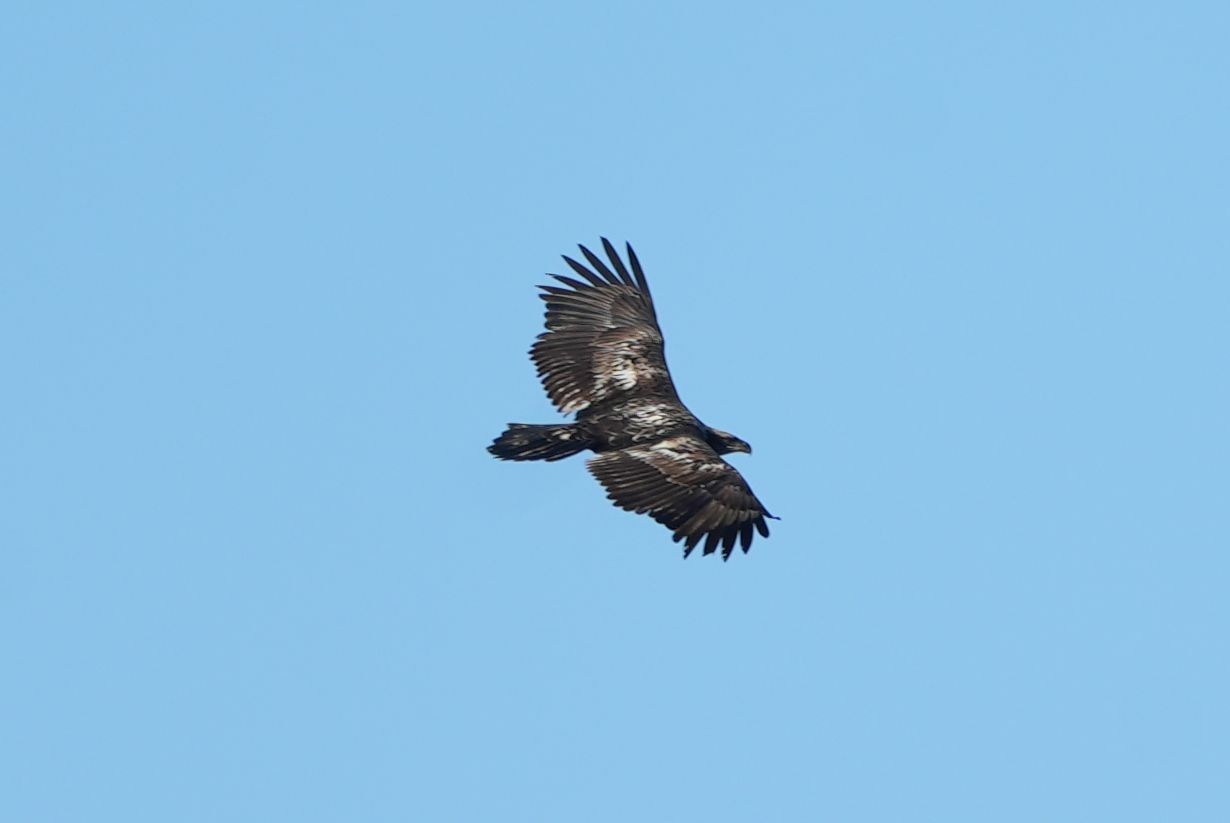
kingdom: Animalia
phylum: Chordata
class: Aves
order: Accipitriformes
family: Accipitridae
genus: Haliaeetus
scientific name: Haliaeetus leucocephalus
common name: Bald eagle
